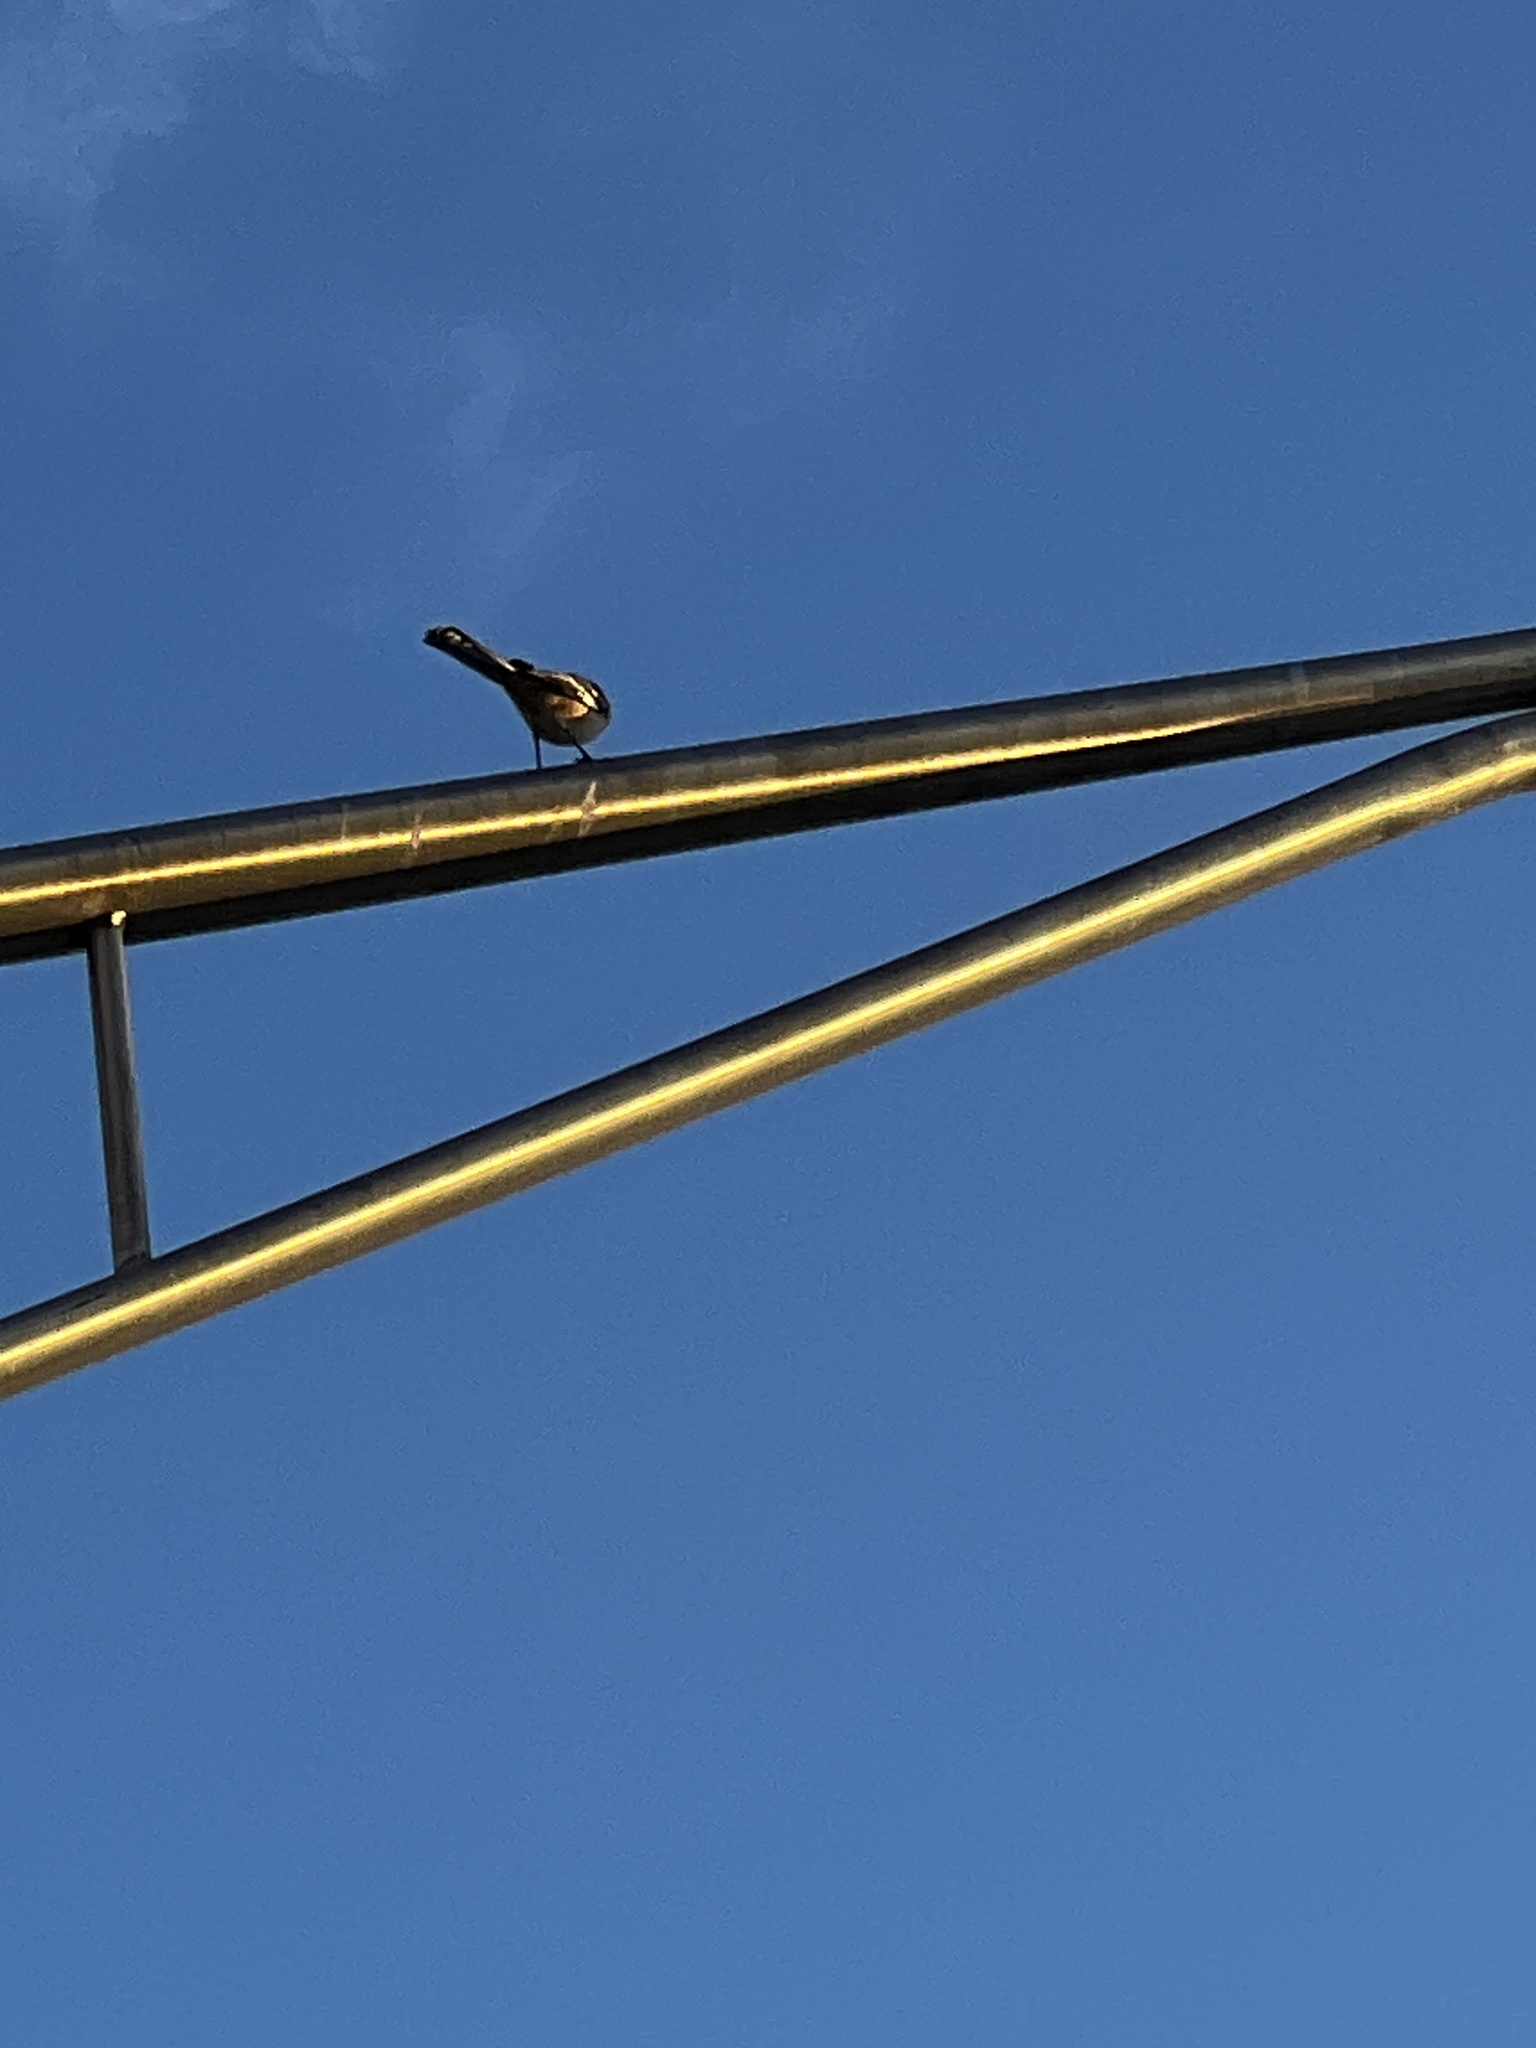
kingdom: Animalia
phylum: Chordata
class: Aves
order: Passeriformes
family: Mimidae
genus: Mimus
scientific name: Mimus polyglottos
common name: Northern mockingbird
